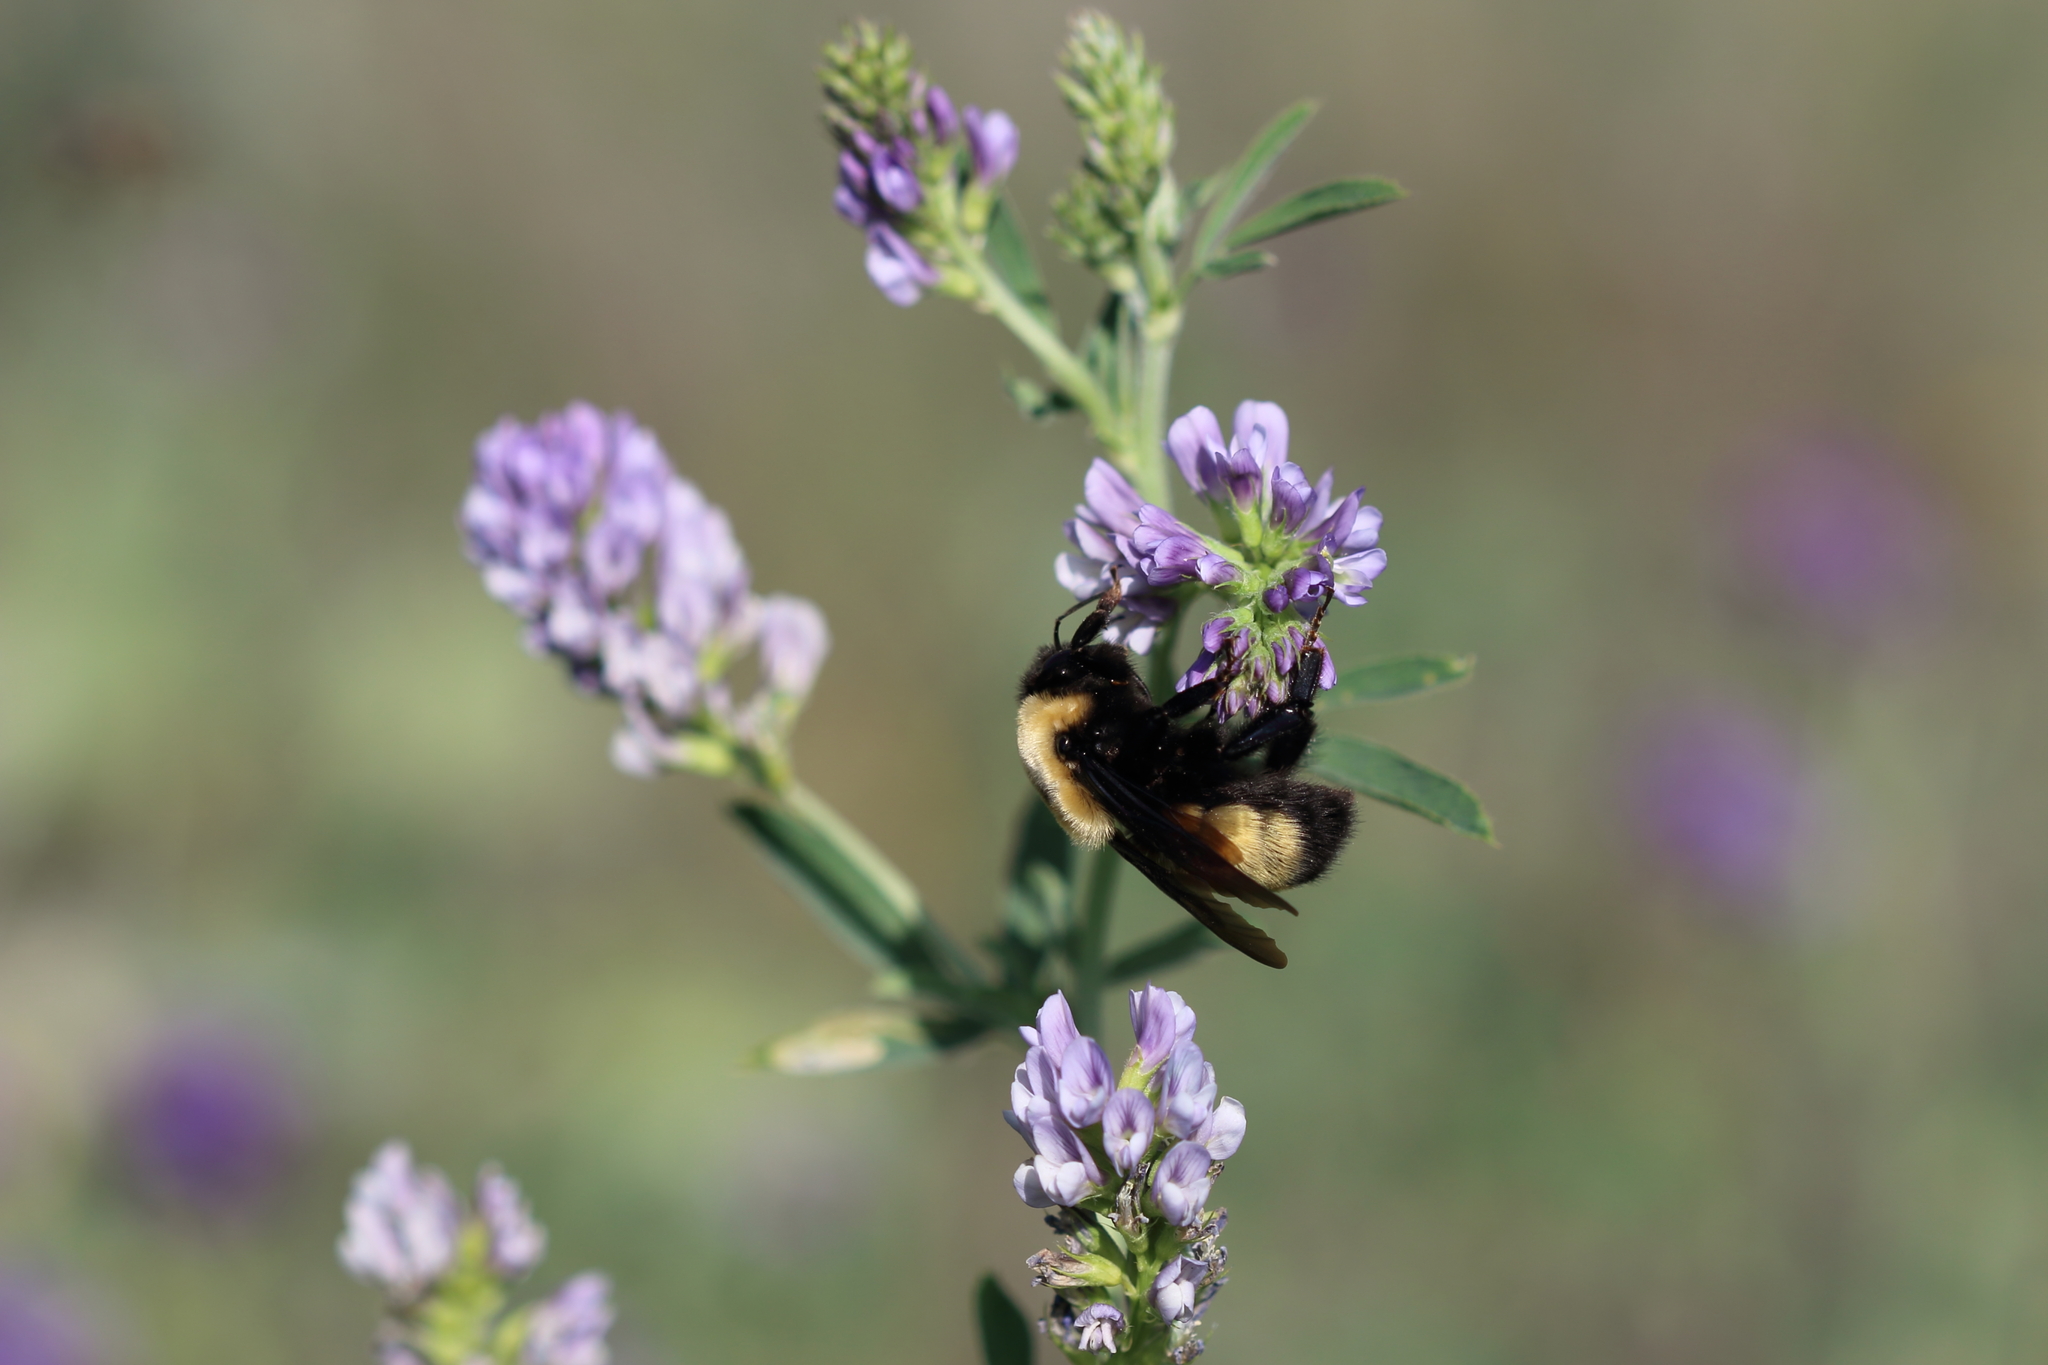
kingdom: Animalia
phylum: Arthropoda
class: Insecta
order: Hymenoptera
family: Apidae
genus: Bombus
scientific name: Bombus nevadensis
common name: Nevada bumble bee
